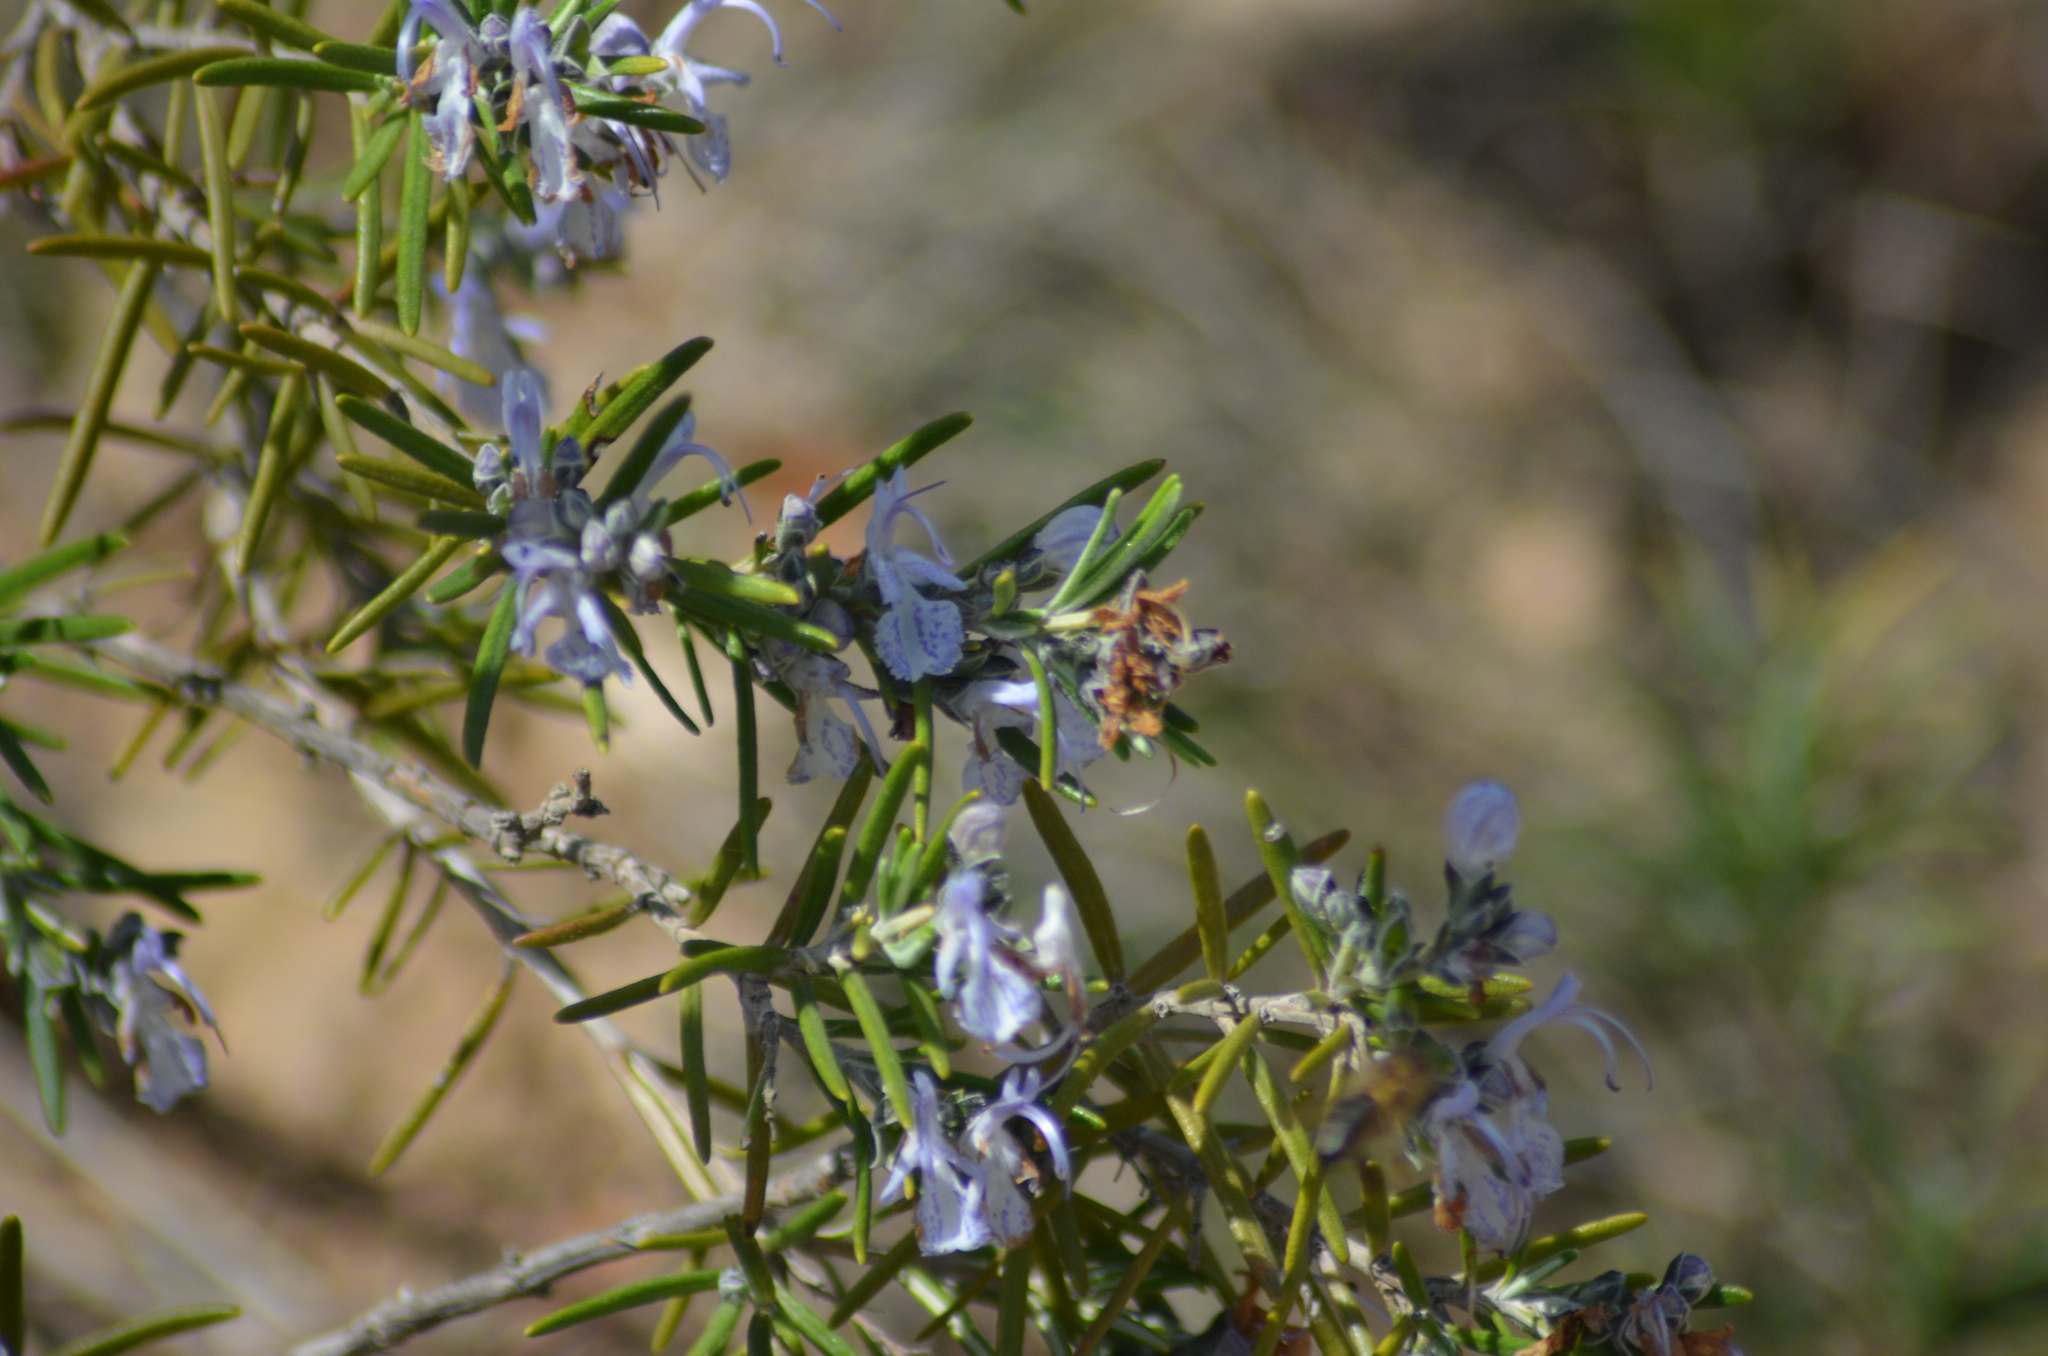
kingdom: Plantae
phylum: Tracheophyta
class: Magnoliopsida
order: Lamiales
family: Lamiaceae
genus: Salvia
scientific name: Salvia rosmarinus
